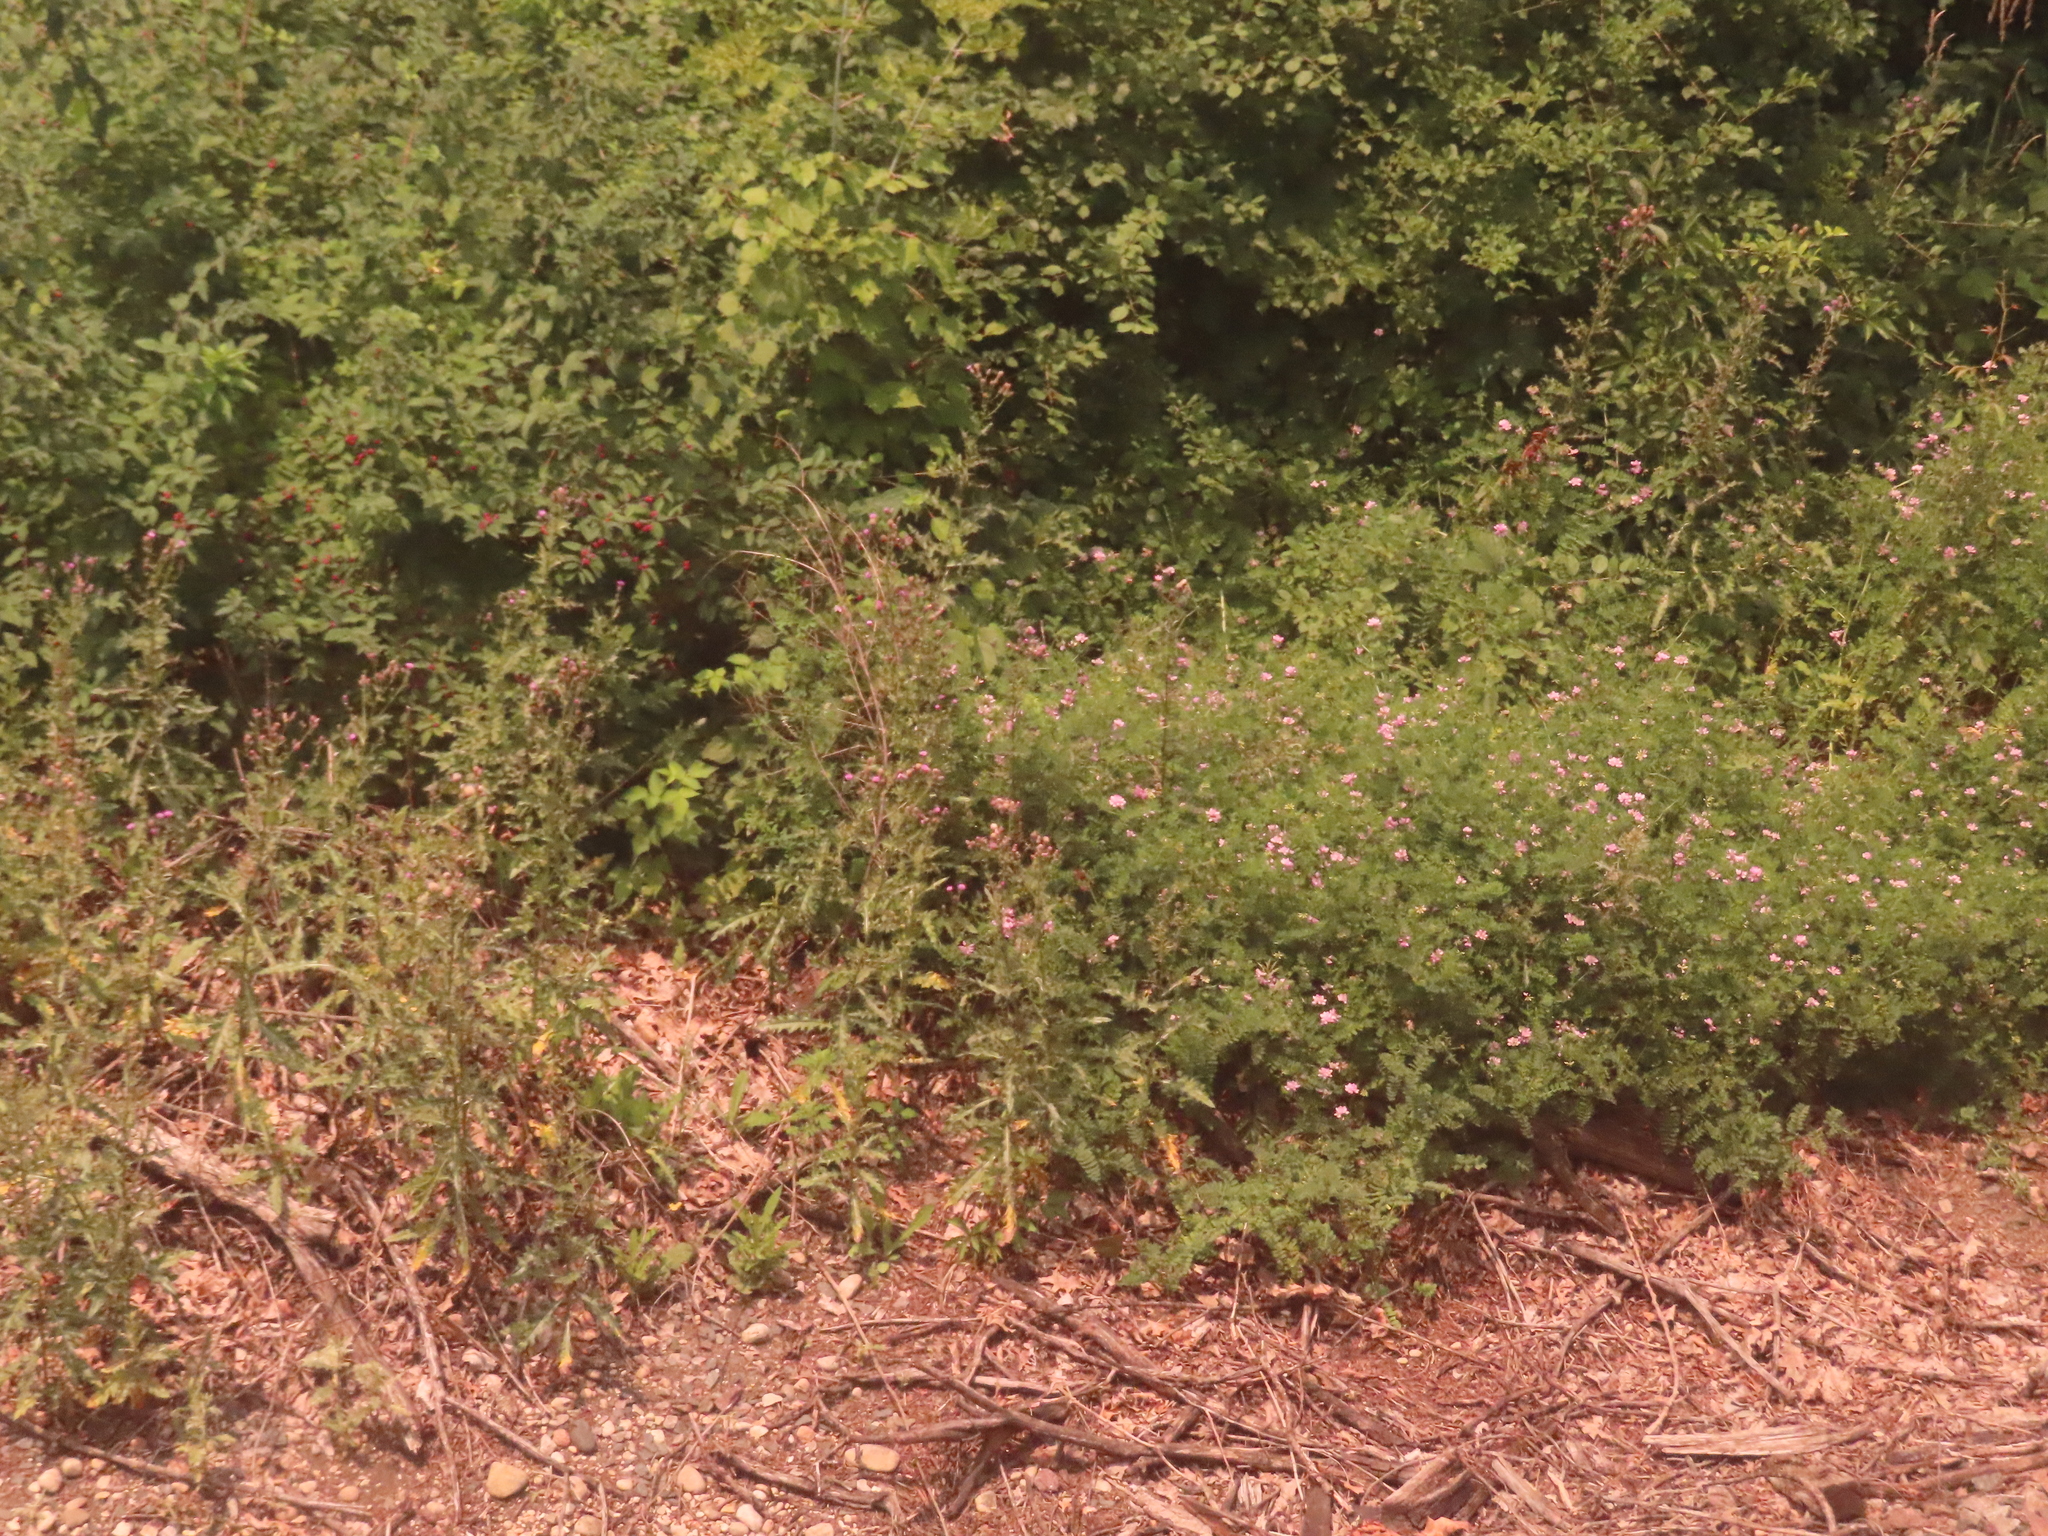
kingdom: Plantae
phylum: Tracheophyta
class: Magnoliopsida
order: Fabales
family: Fabaceae
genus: Coronilla
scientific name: Coronilla varia
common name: Crownvetch
